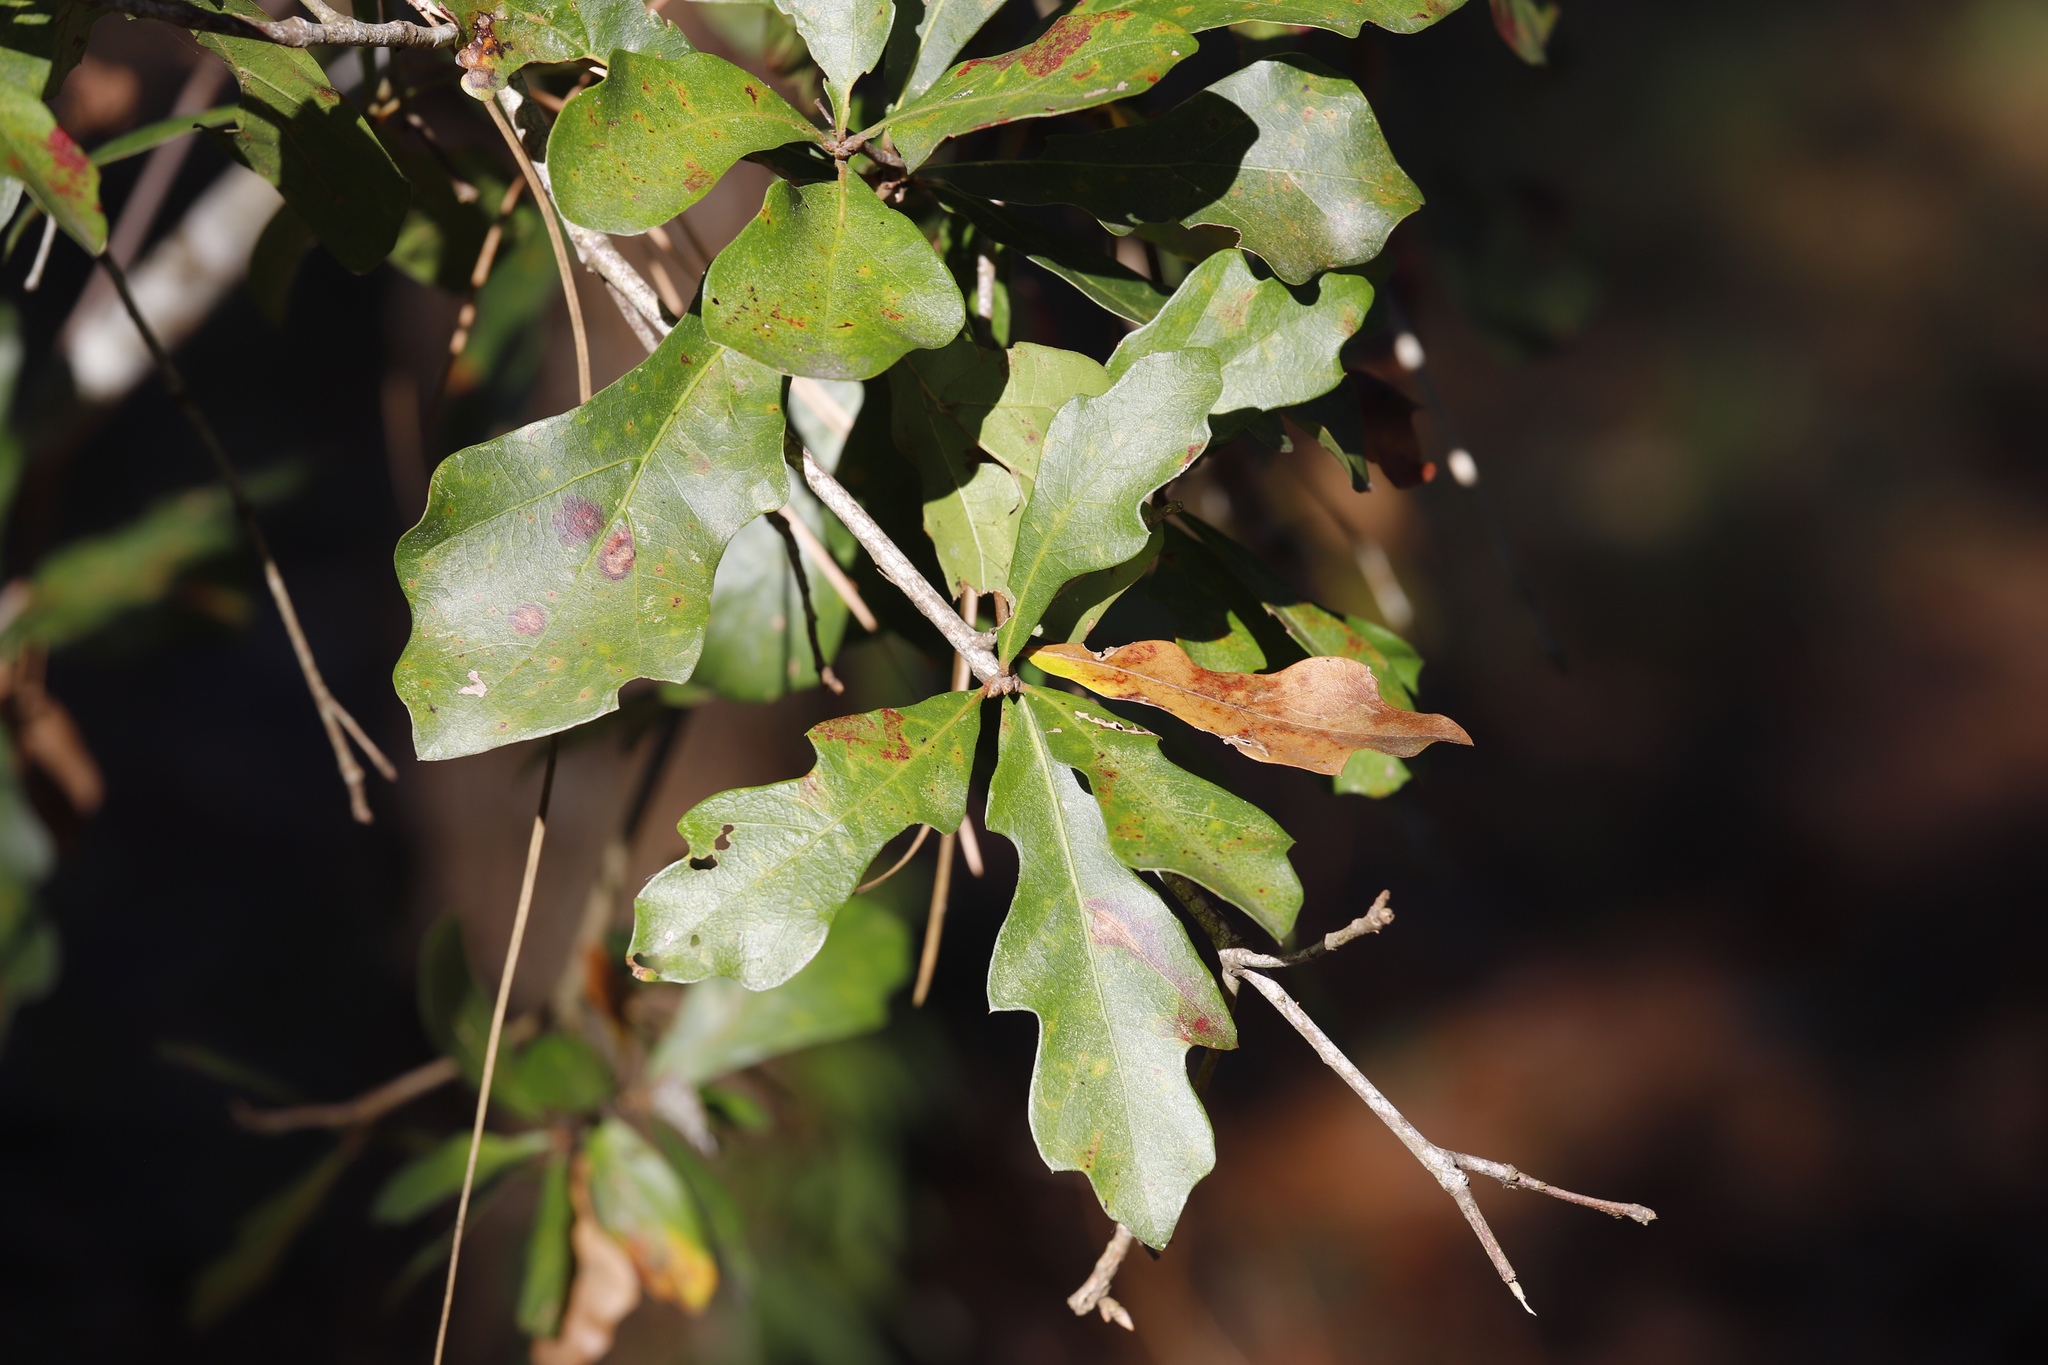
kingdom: Plantae
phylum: Tracheophyta
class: Magnoliopsida
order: Fagales
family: Fagaceae
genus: Quercus
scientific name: Quercus nigra
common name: Water oak
